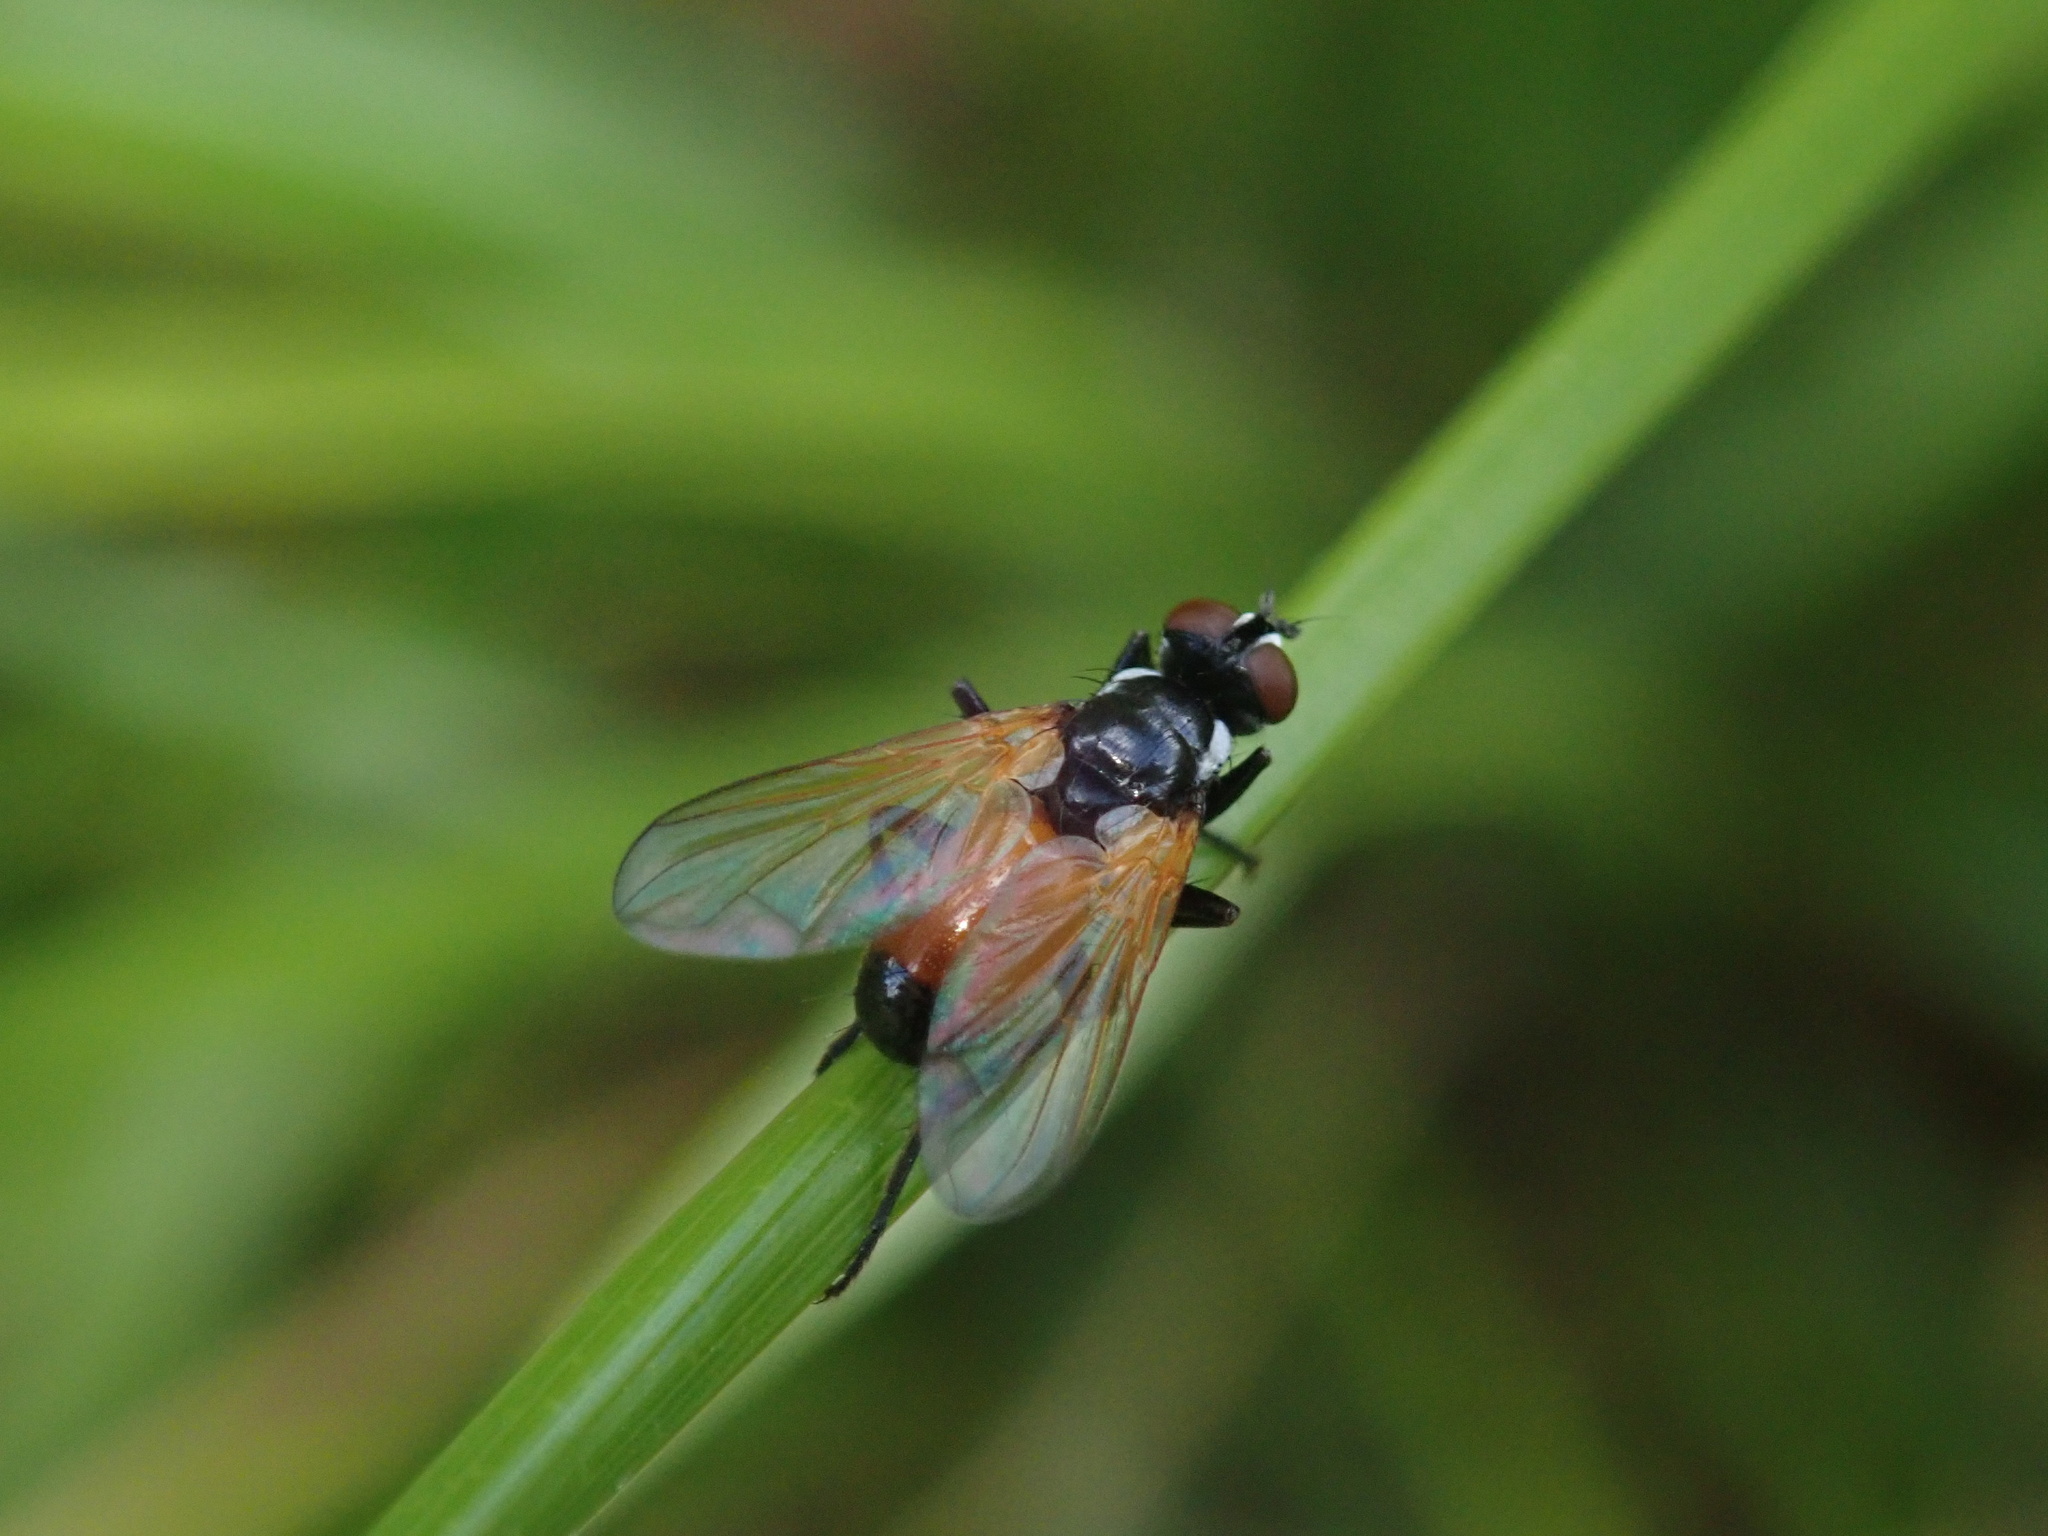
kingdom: Animalia
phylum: Arthropoda
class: Insecta
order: Diptera
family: Tachinidae
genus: Huttonobesseria
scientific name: Huttonobesseria verecunda
